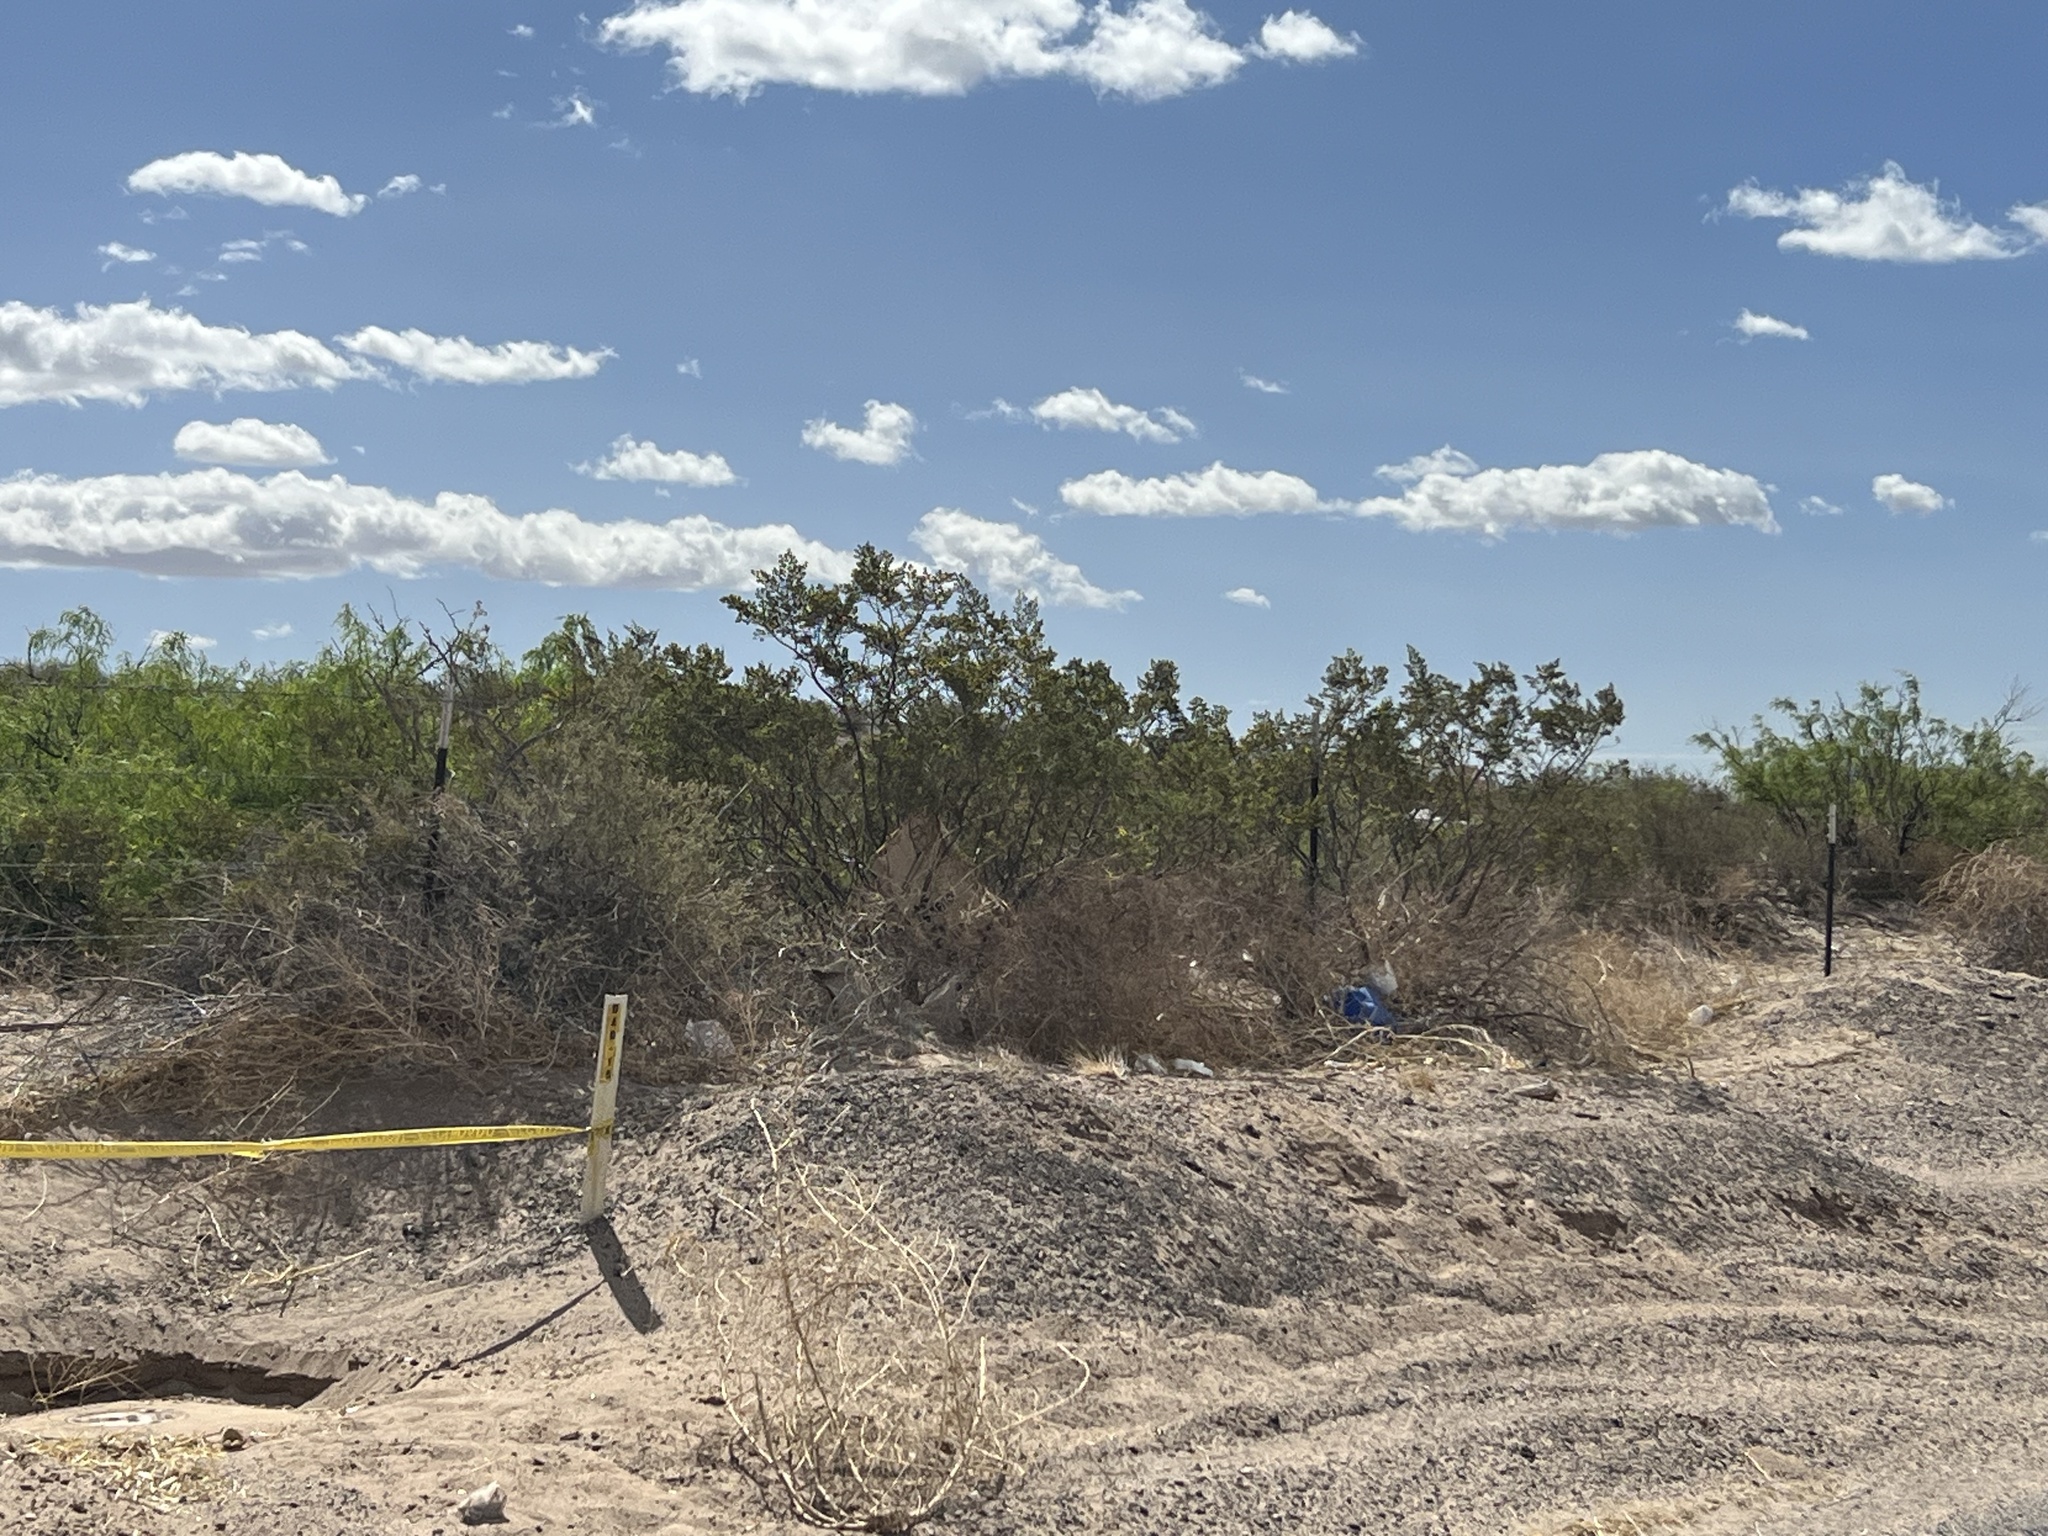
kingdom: Plantae
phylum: Tracheophyta
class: Magnoliopsida
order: Zygophyllales
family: Zygophyllaceae
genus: Larrea
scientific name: Larrea tridentata
